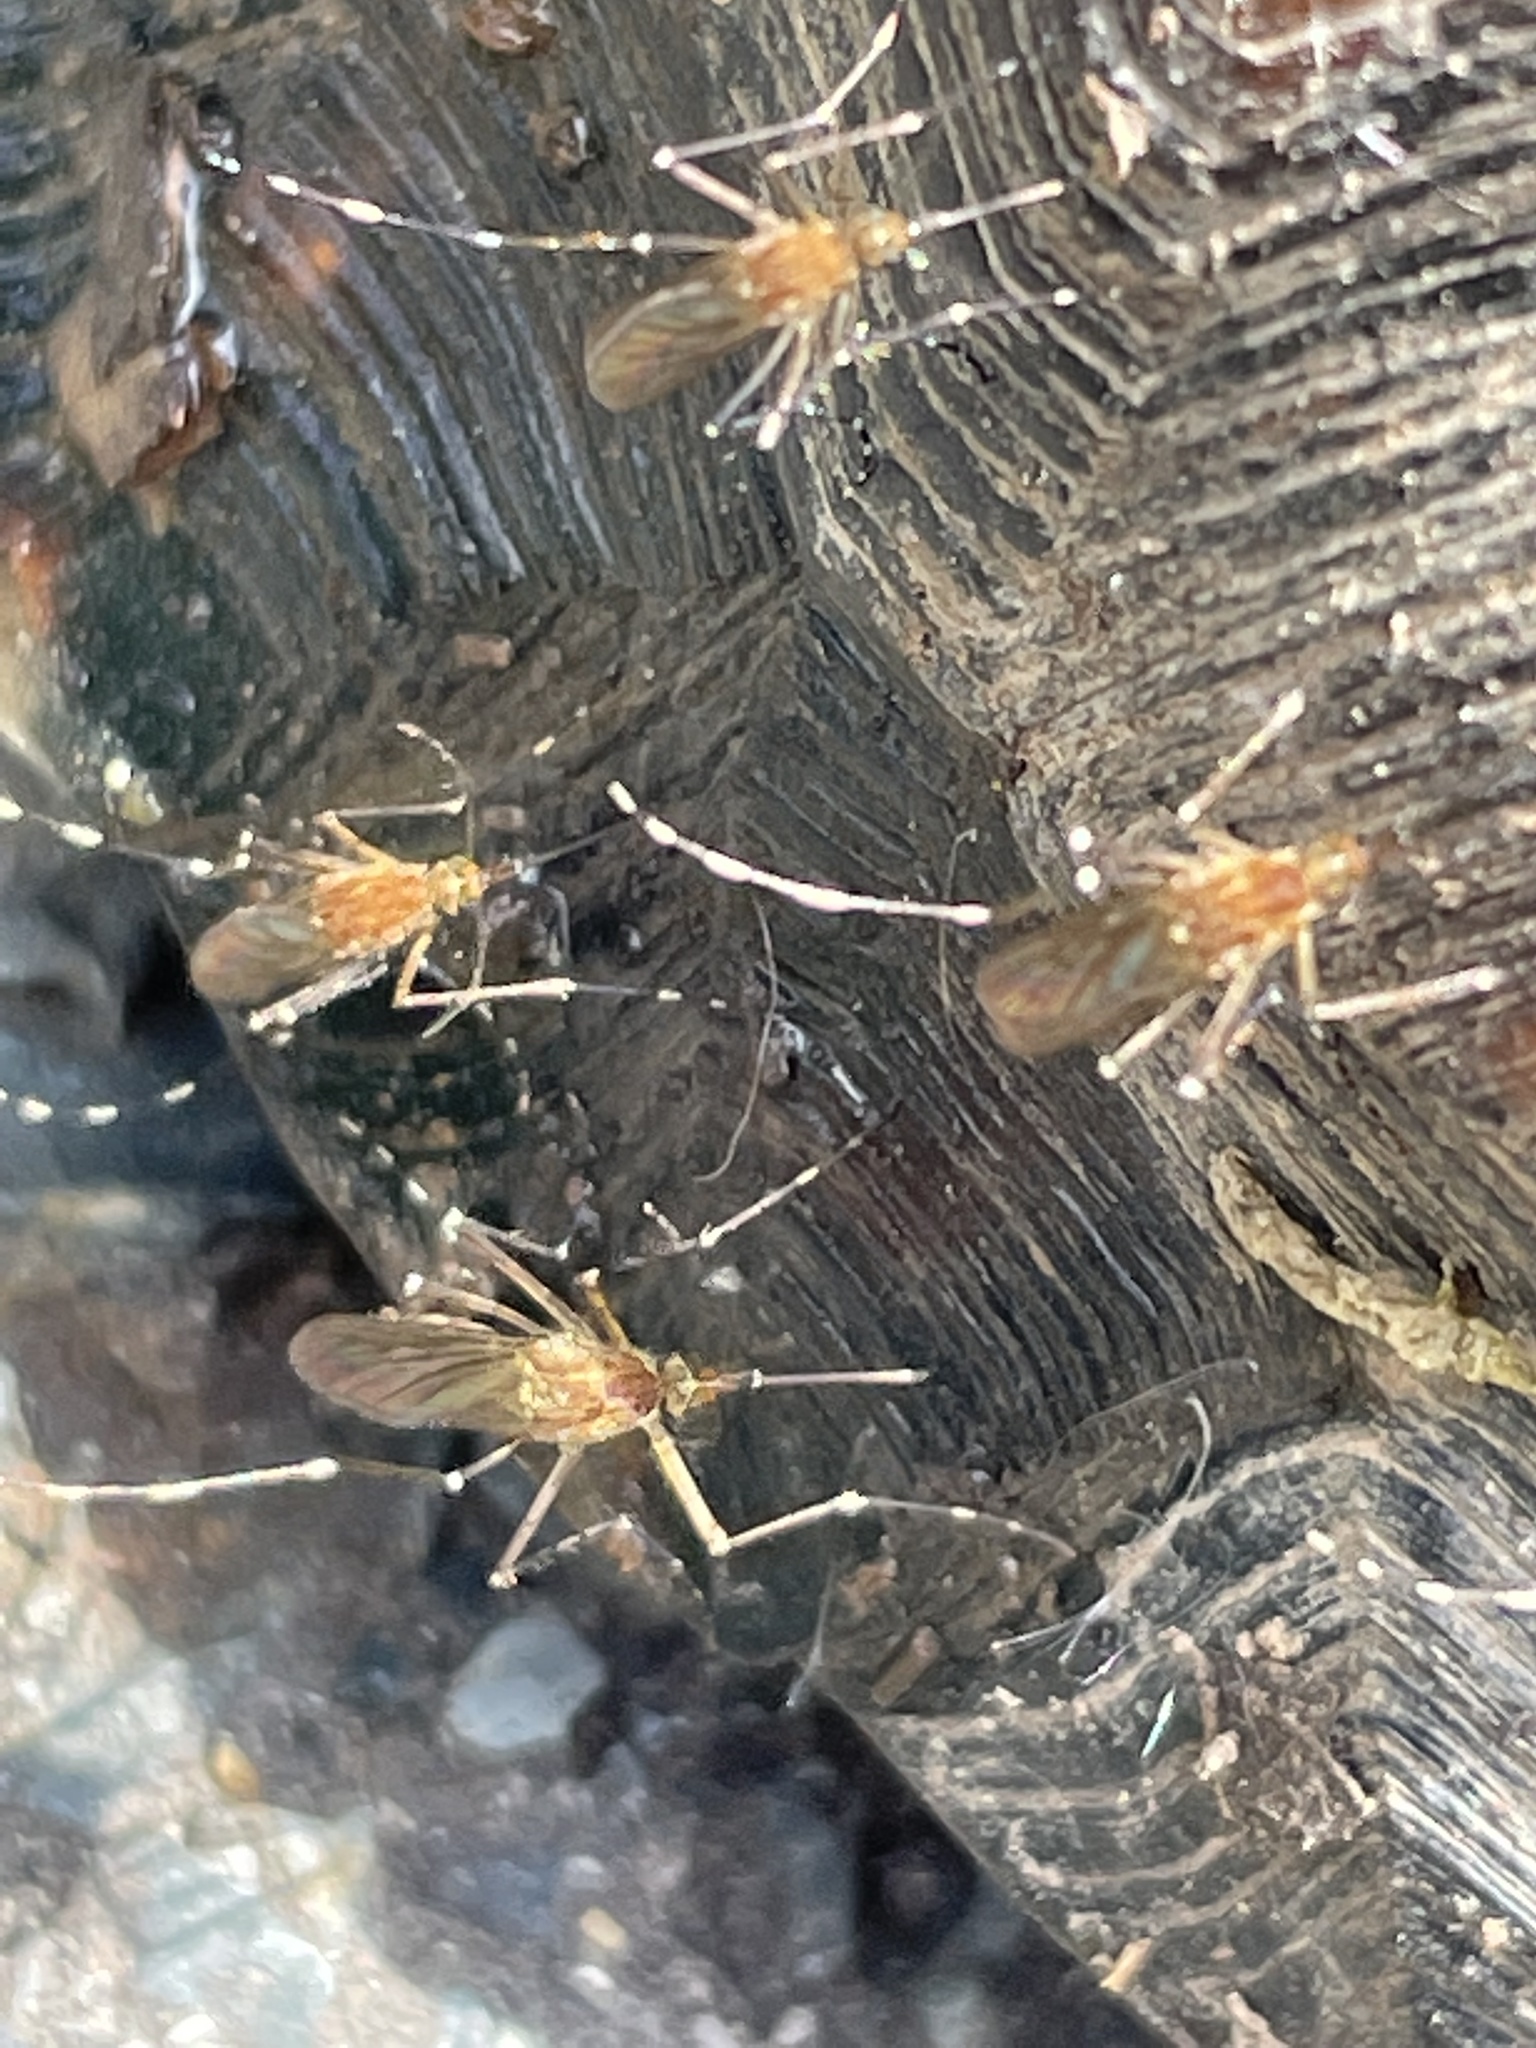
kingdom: Animalia
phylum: Chordata
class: Testudines
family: Emydidae
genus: Terrapene
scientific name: Terrapene carolina
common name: Common box turtle
